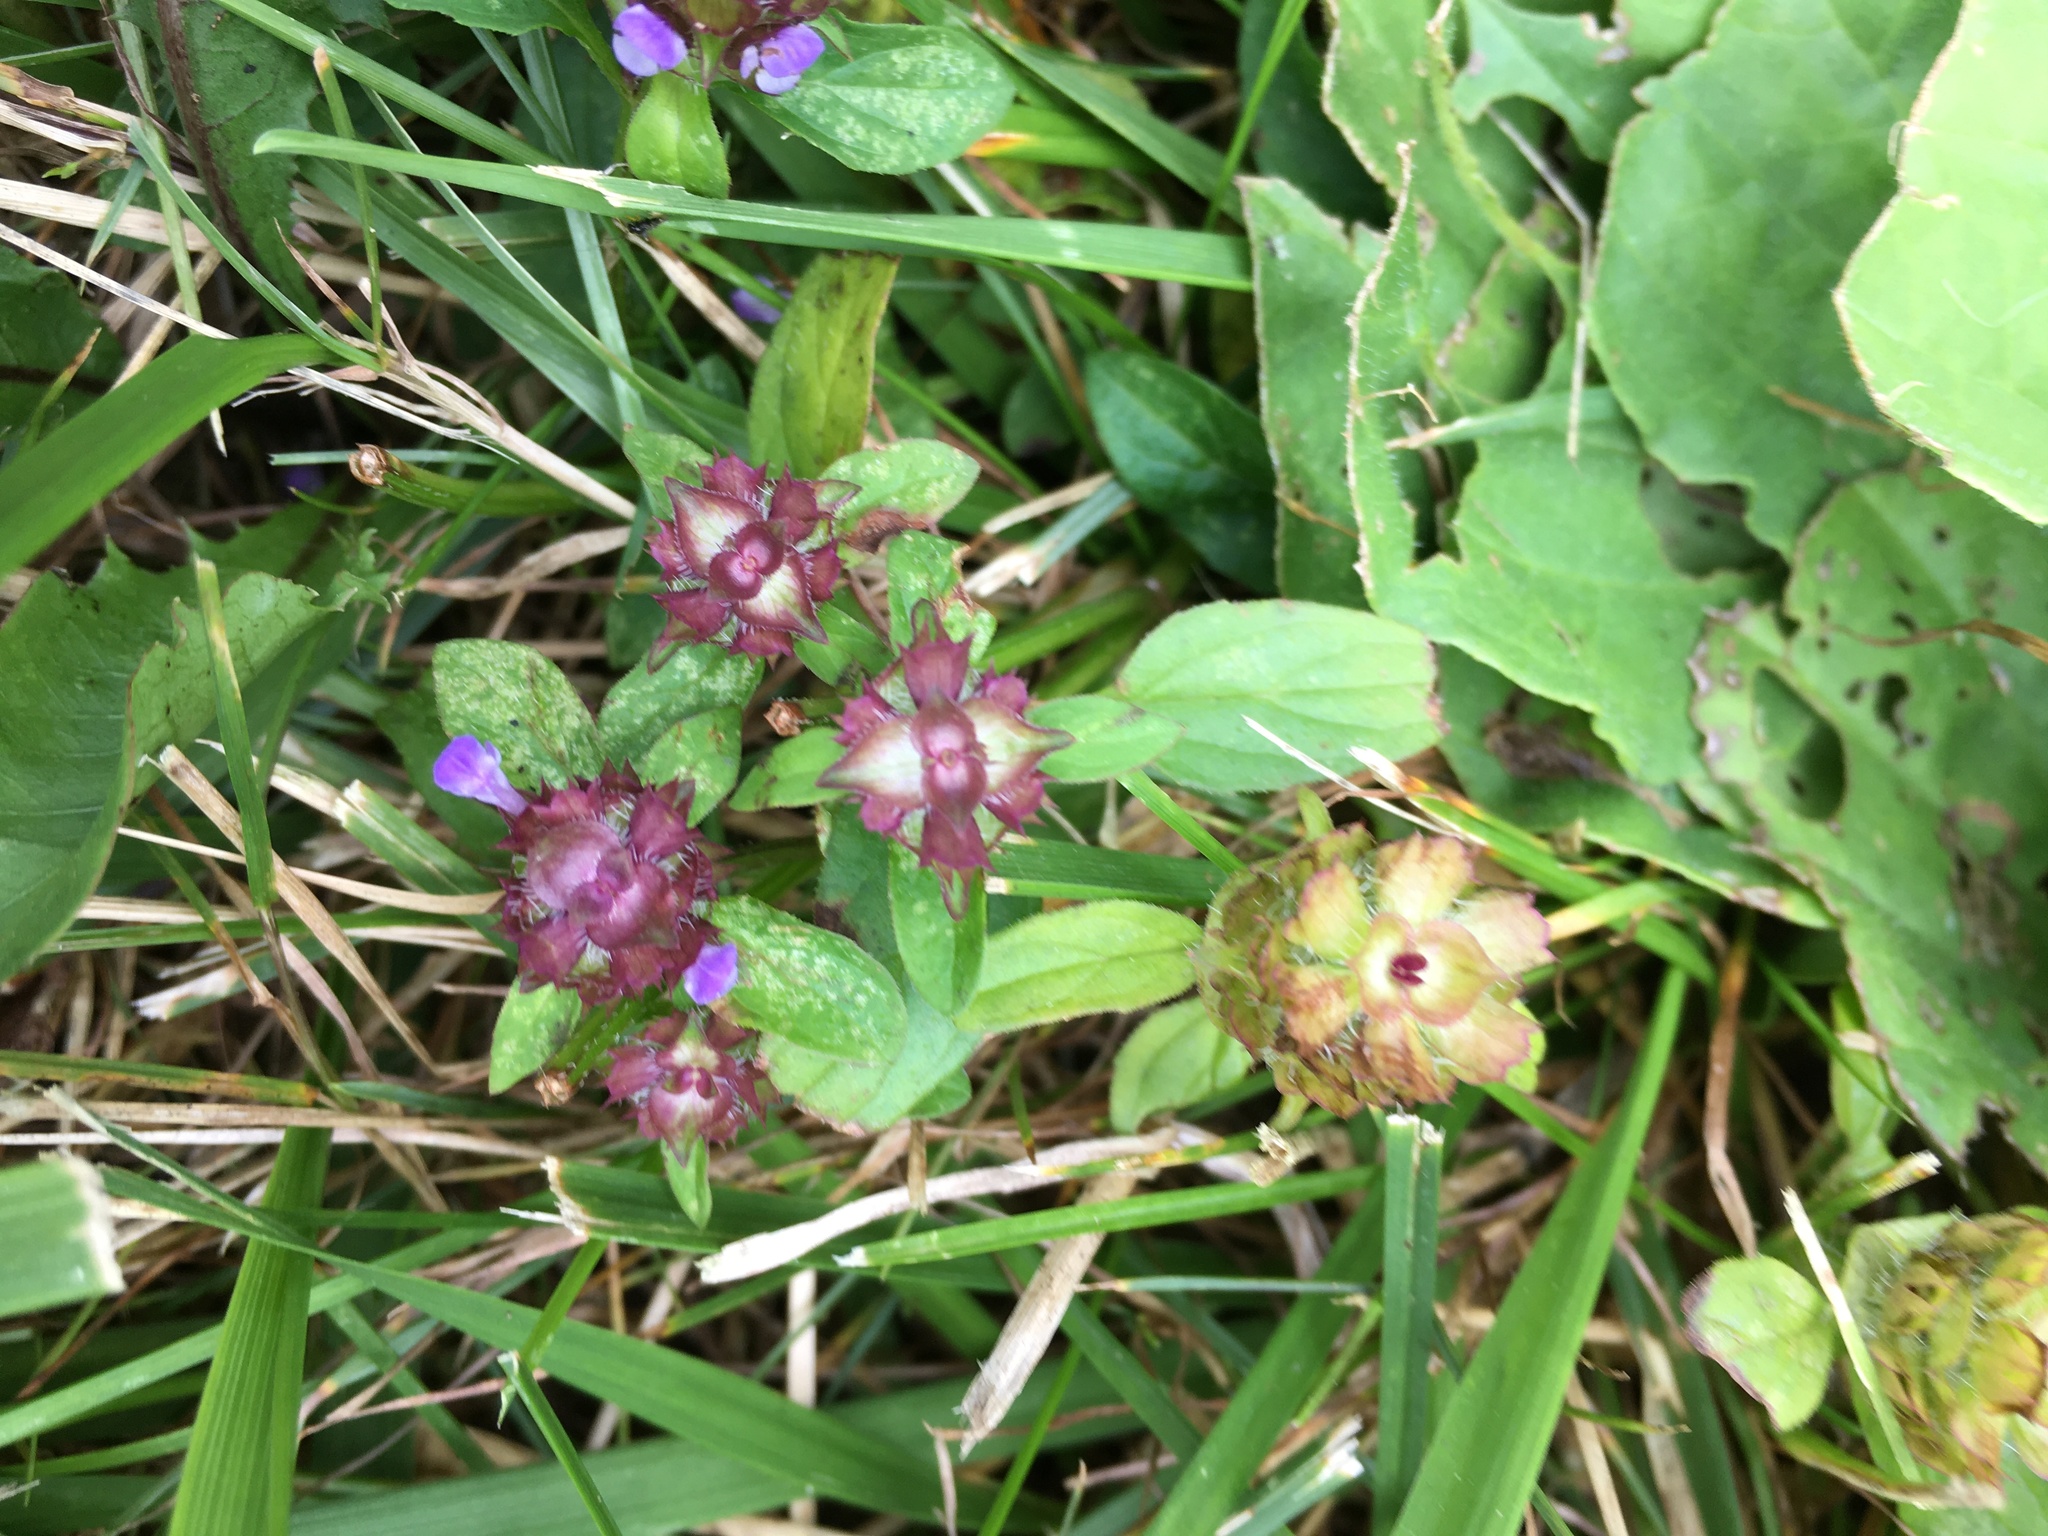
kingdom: Plantae
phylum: Tracheophyta
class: Magnoliopsida
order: Lamiales
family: Lamiaceae
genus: Prunella
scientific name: Prunella vulgaris
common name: Heal-all
